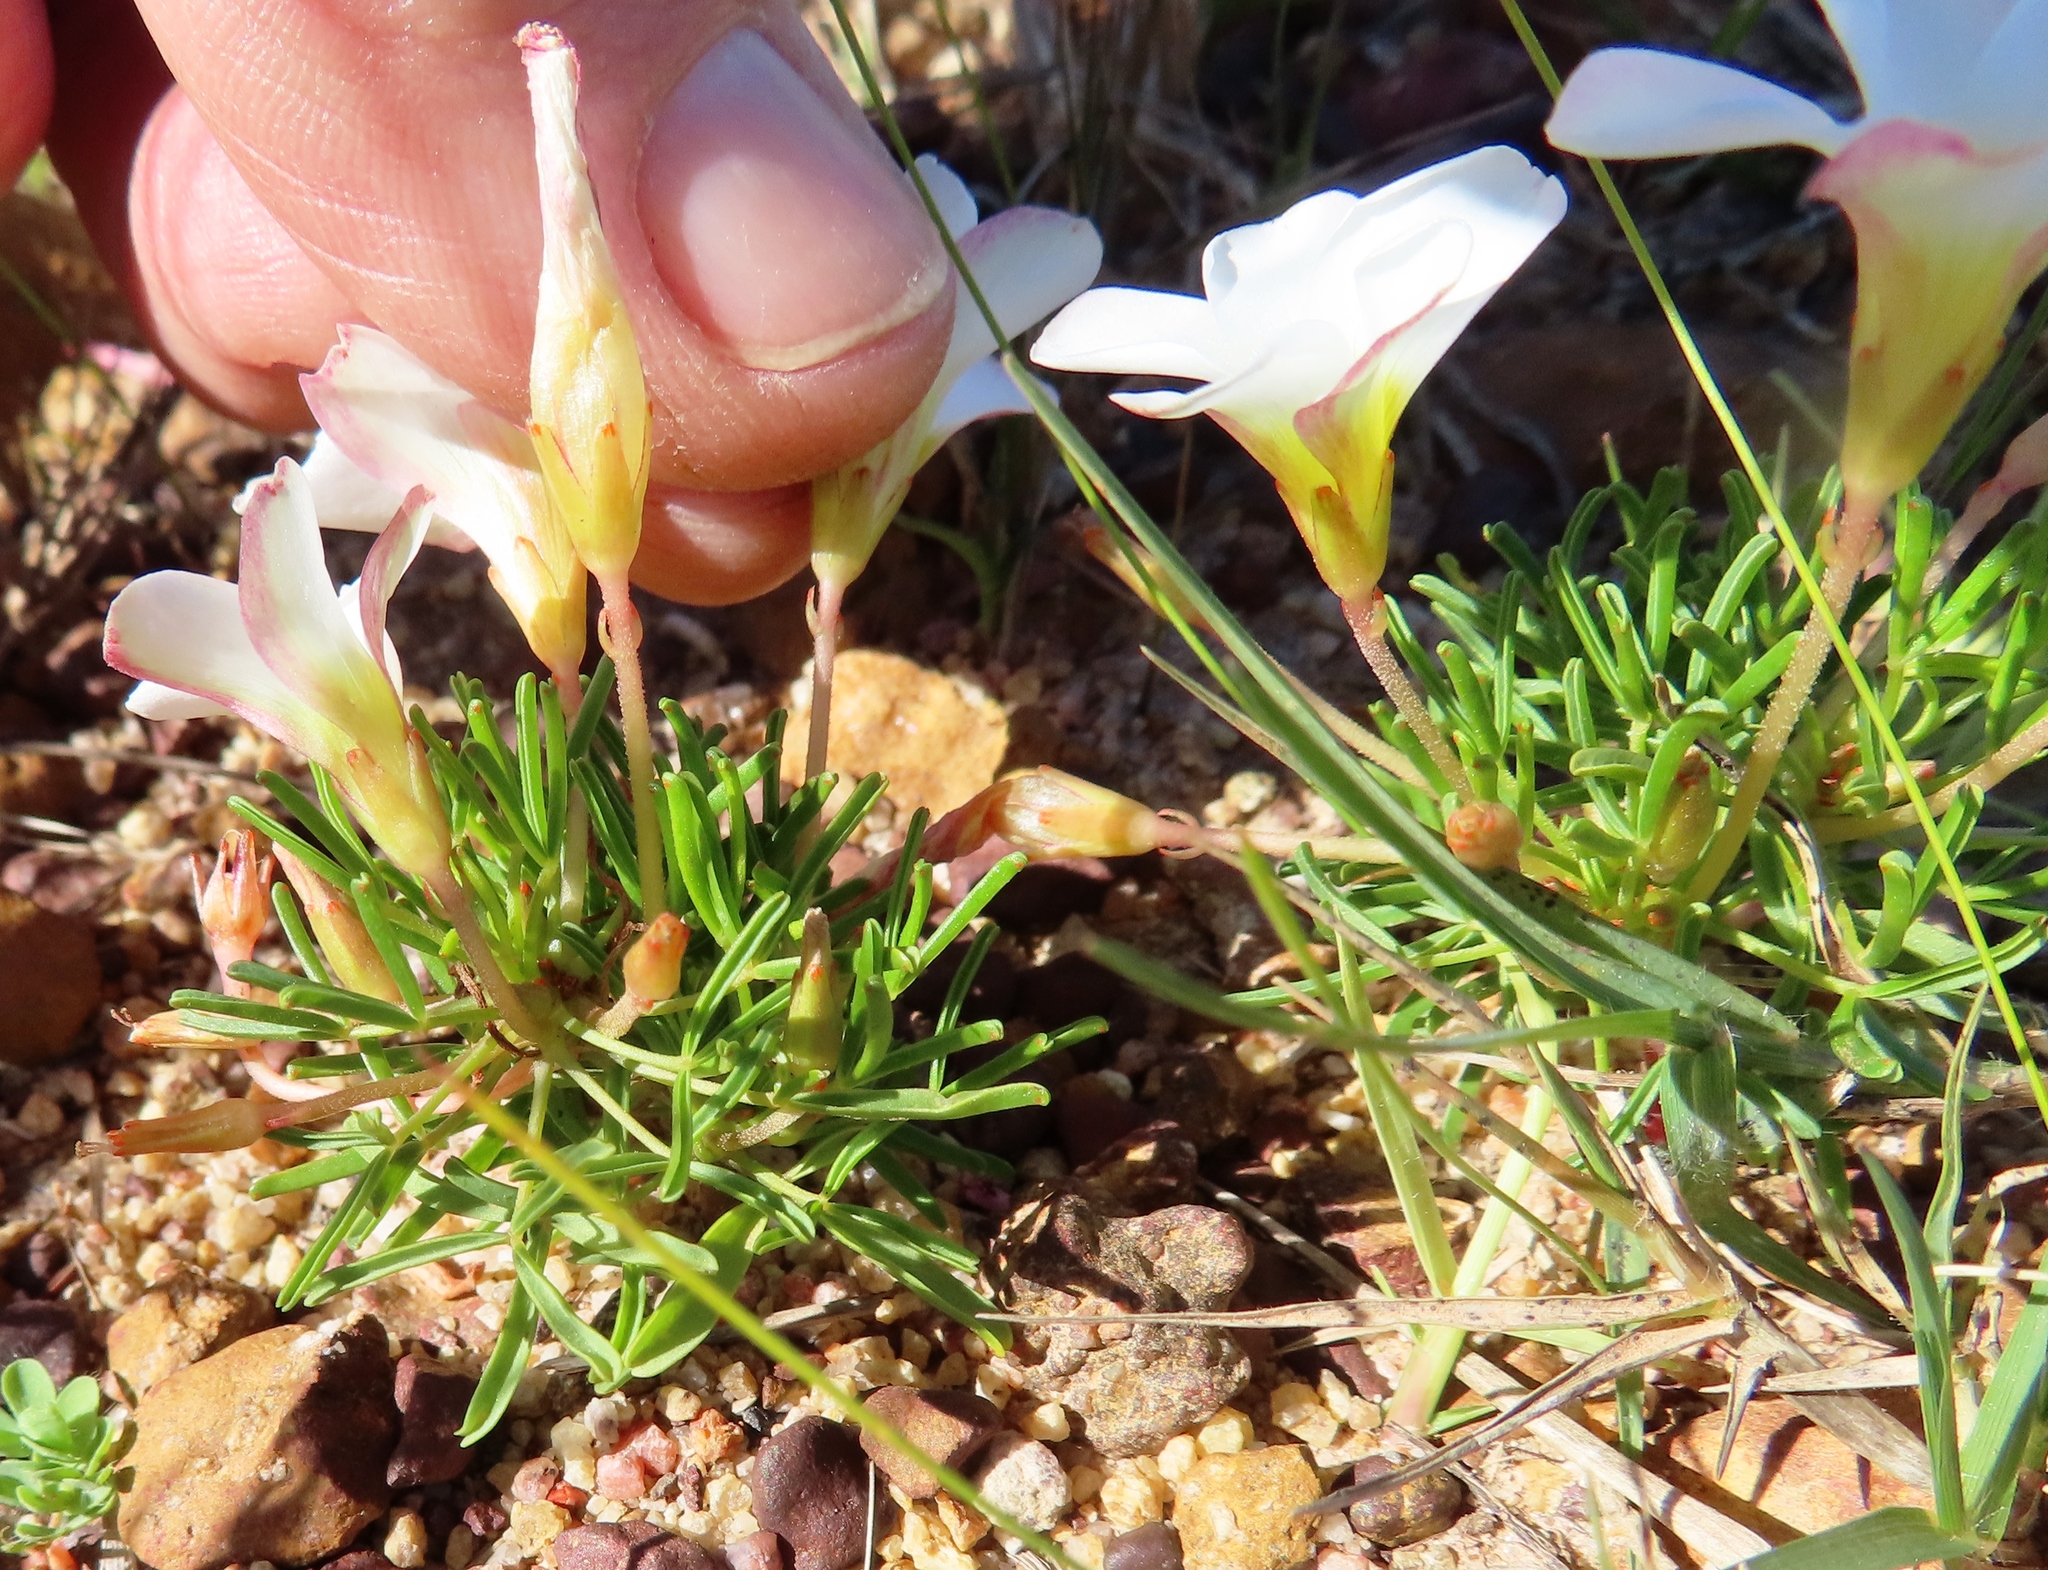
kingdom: Plantae
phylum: Tracheophyta
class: Magnoliopsida
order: Oxalidales
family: Oxalidaceae
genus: Oxalis
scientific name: Oxalis versicolor
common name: Peppermint rock oxalis
